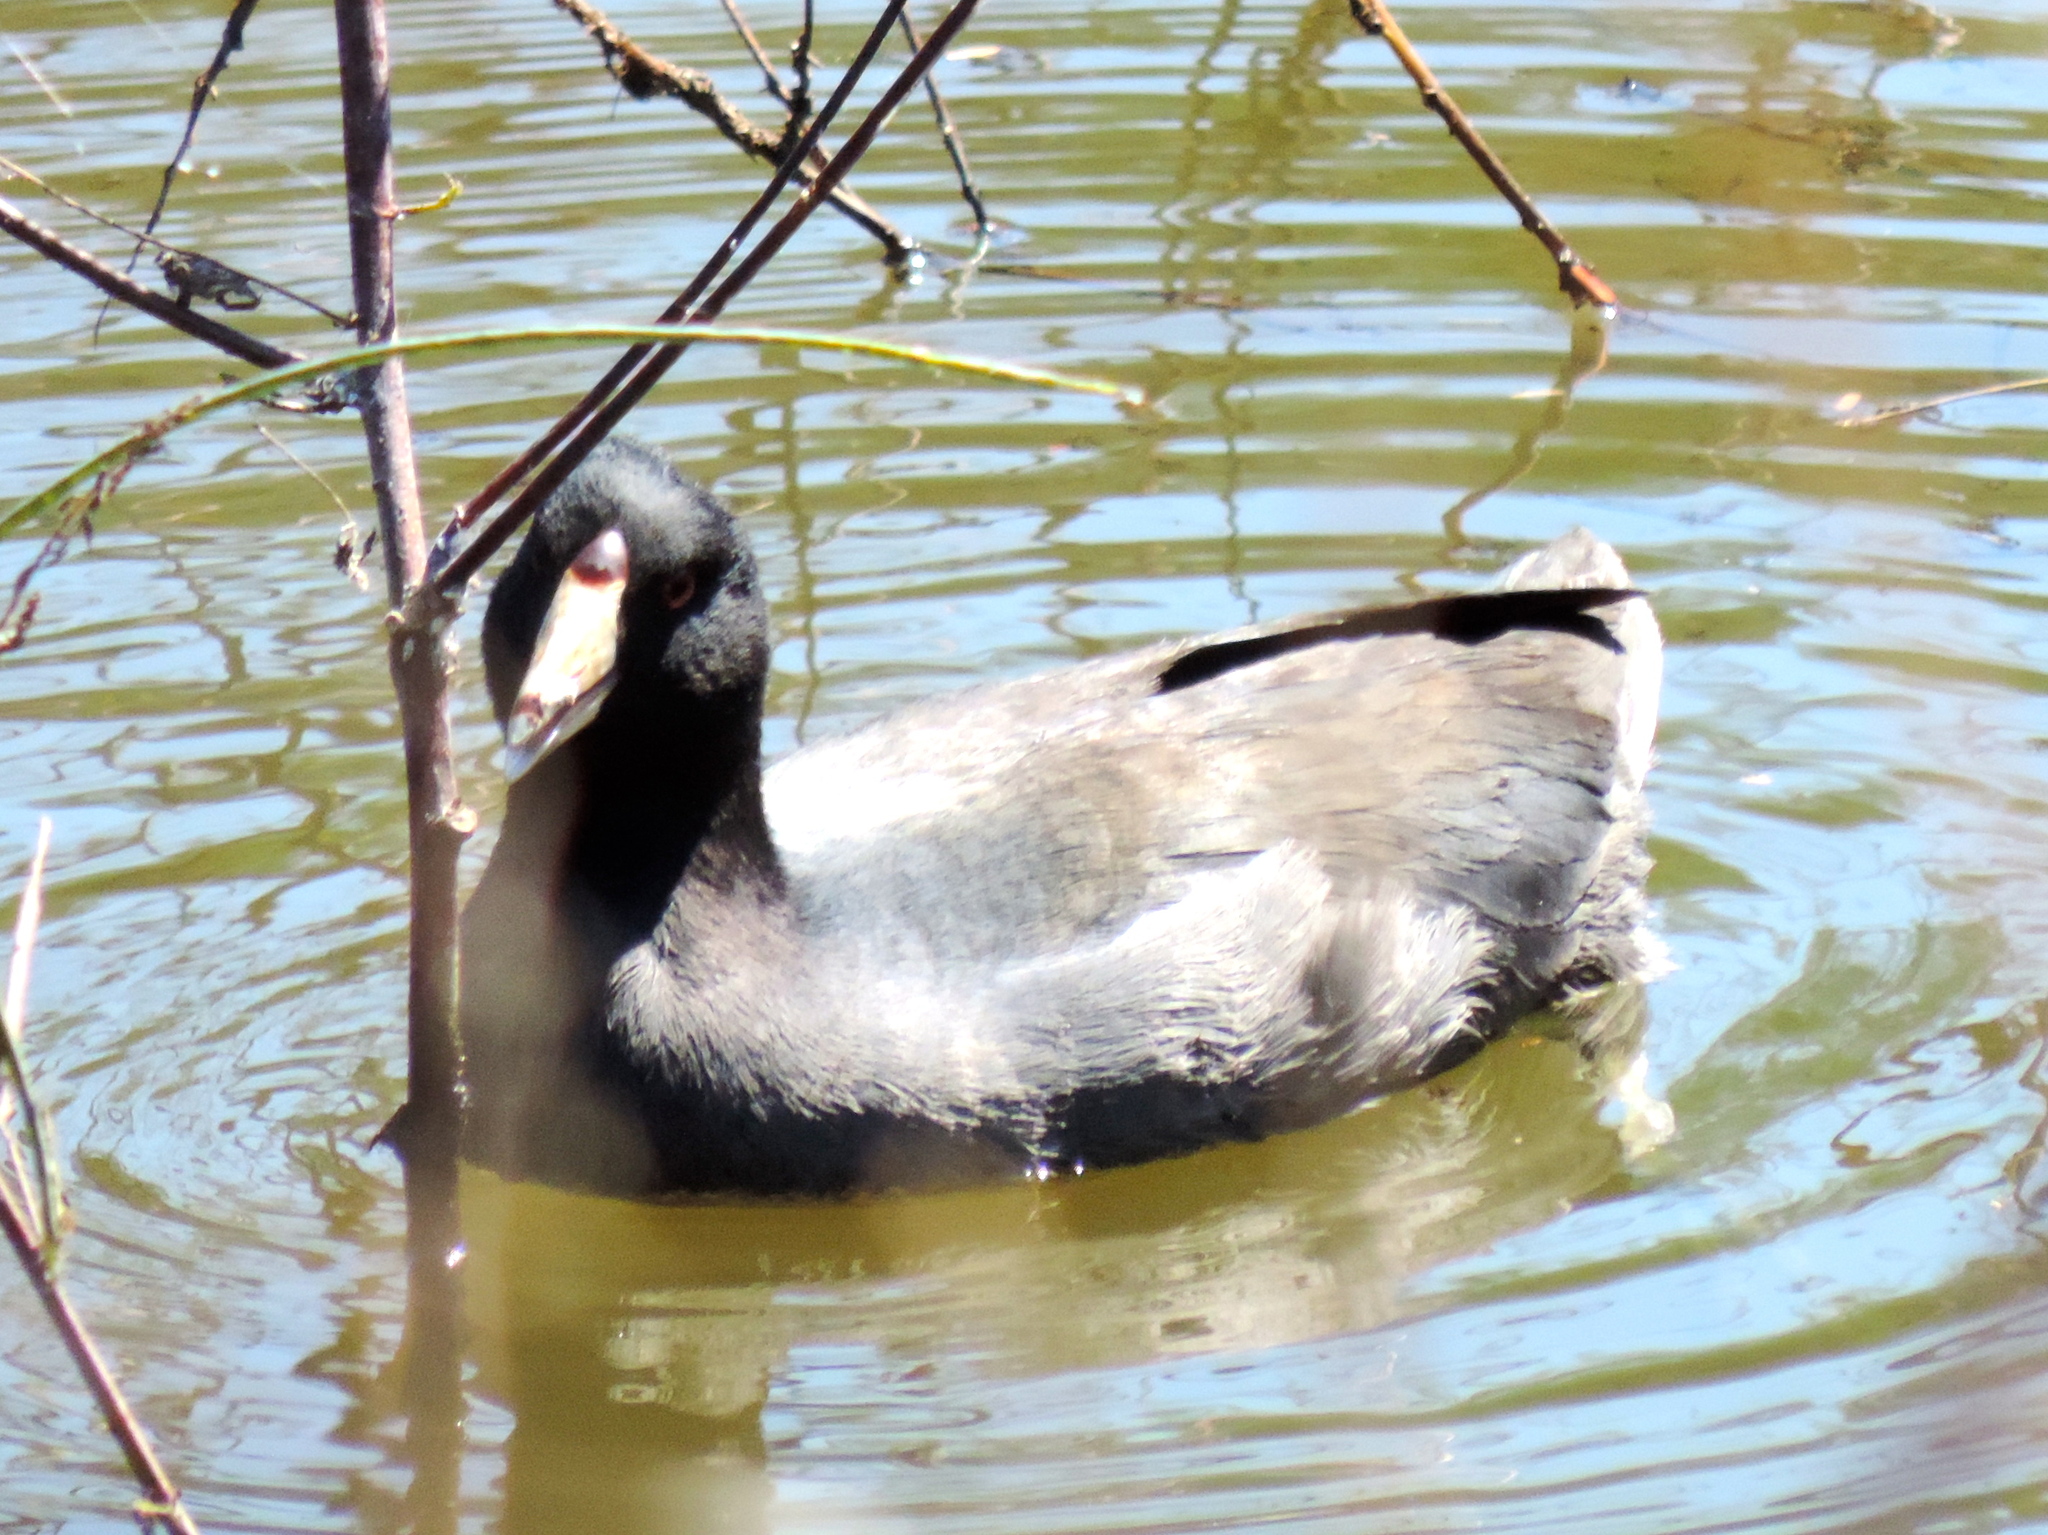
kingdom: Animalia
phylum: Chordata
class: Aves
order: Gruiformes
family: Rallidae
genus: Fulica
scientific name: Fulica americana
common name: American coot
